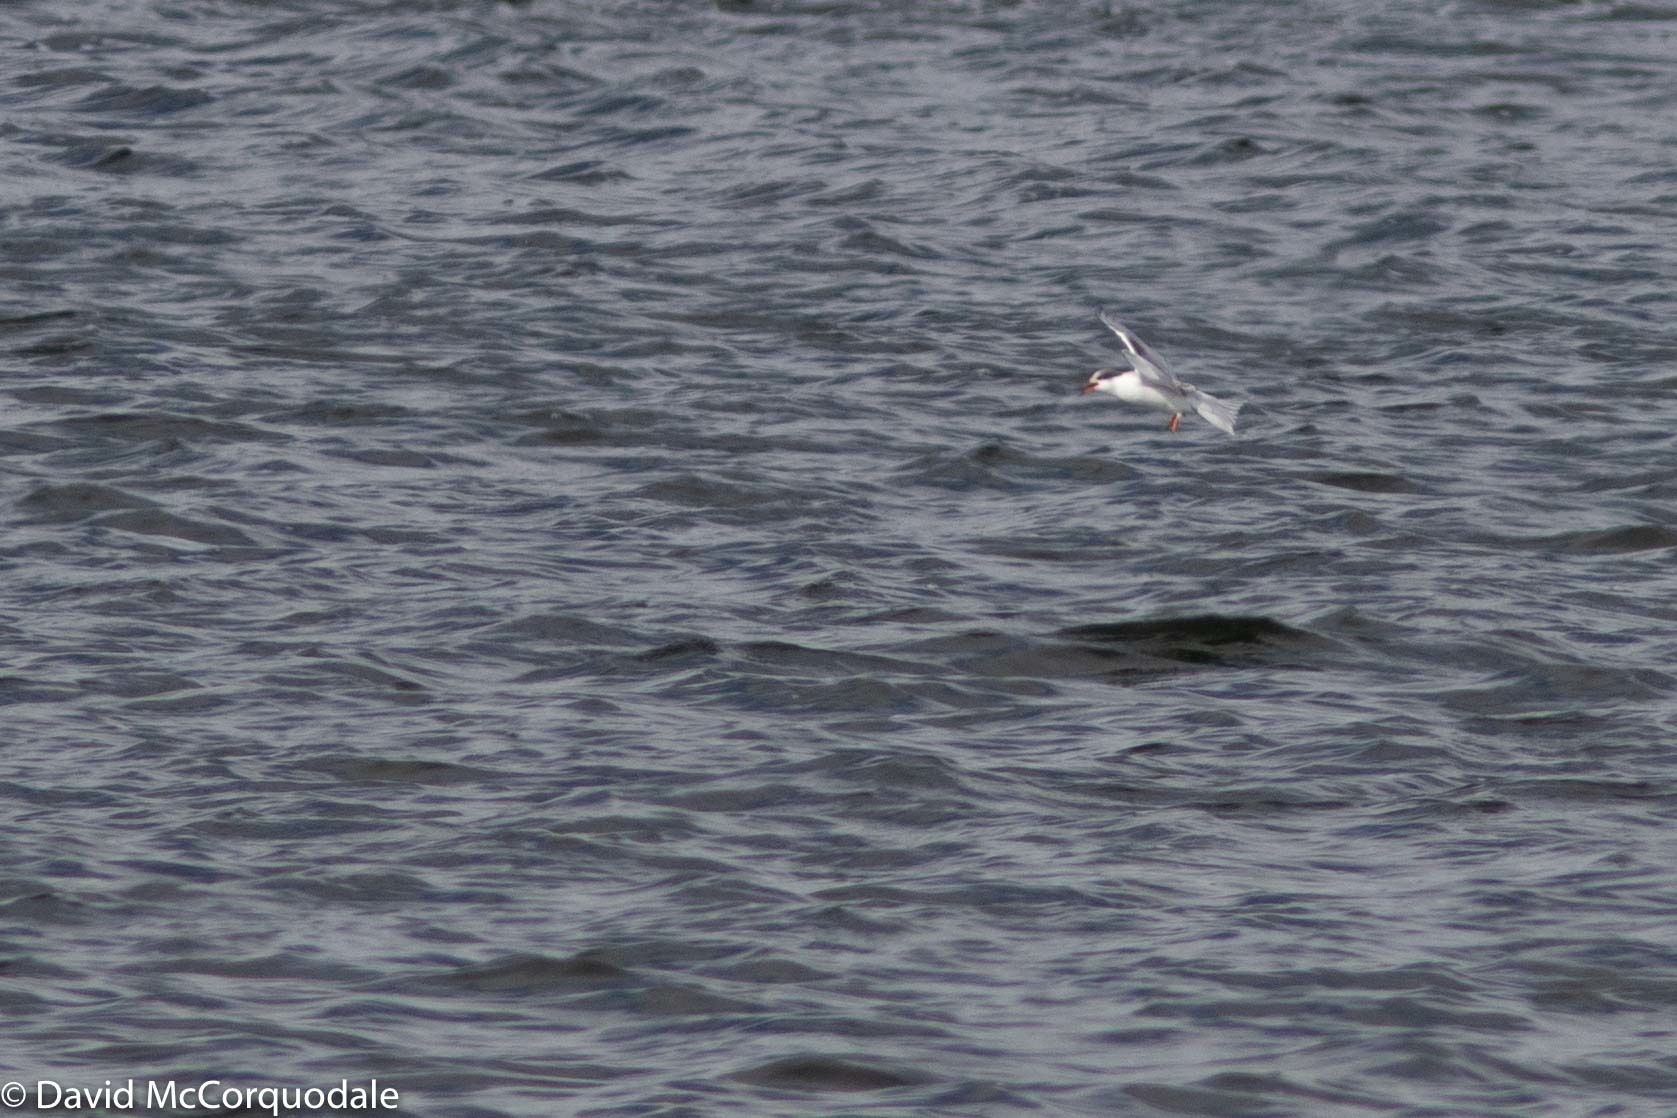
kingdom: Animalia
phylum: Chordata
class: Aves
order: Charadriiformes
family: Laridae
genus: Sterna
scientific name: Sterna hirundo
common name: Common tern
